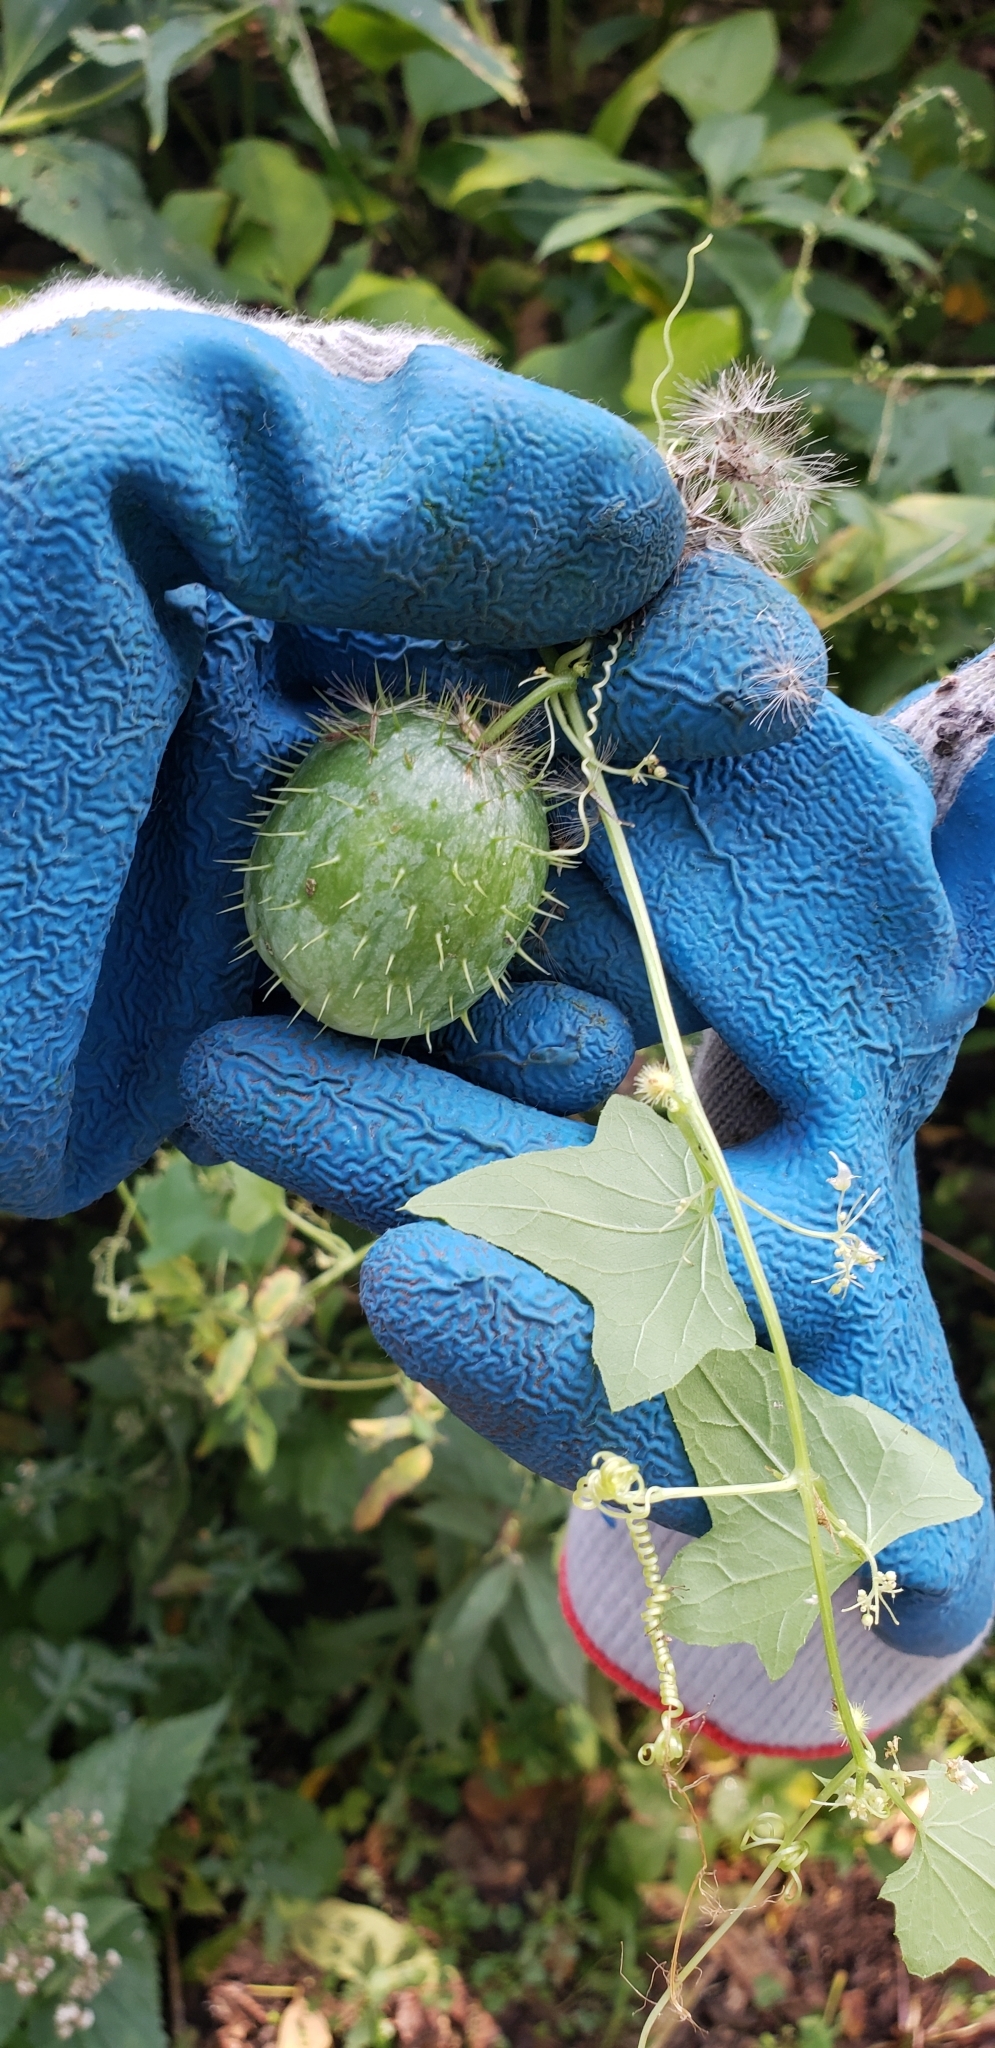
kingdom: Plantae
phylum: Tracheophyta
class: Magnoliopsida
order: Cucurbitales
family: Cucurbitaceae
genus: Echinocystis
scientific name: Echinocystis lobata
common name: Wild cucumber
